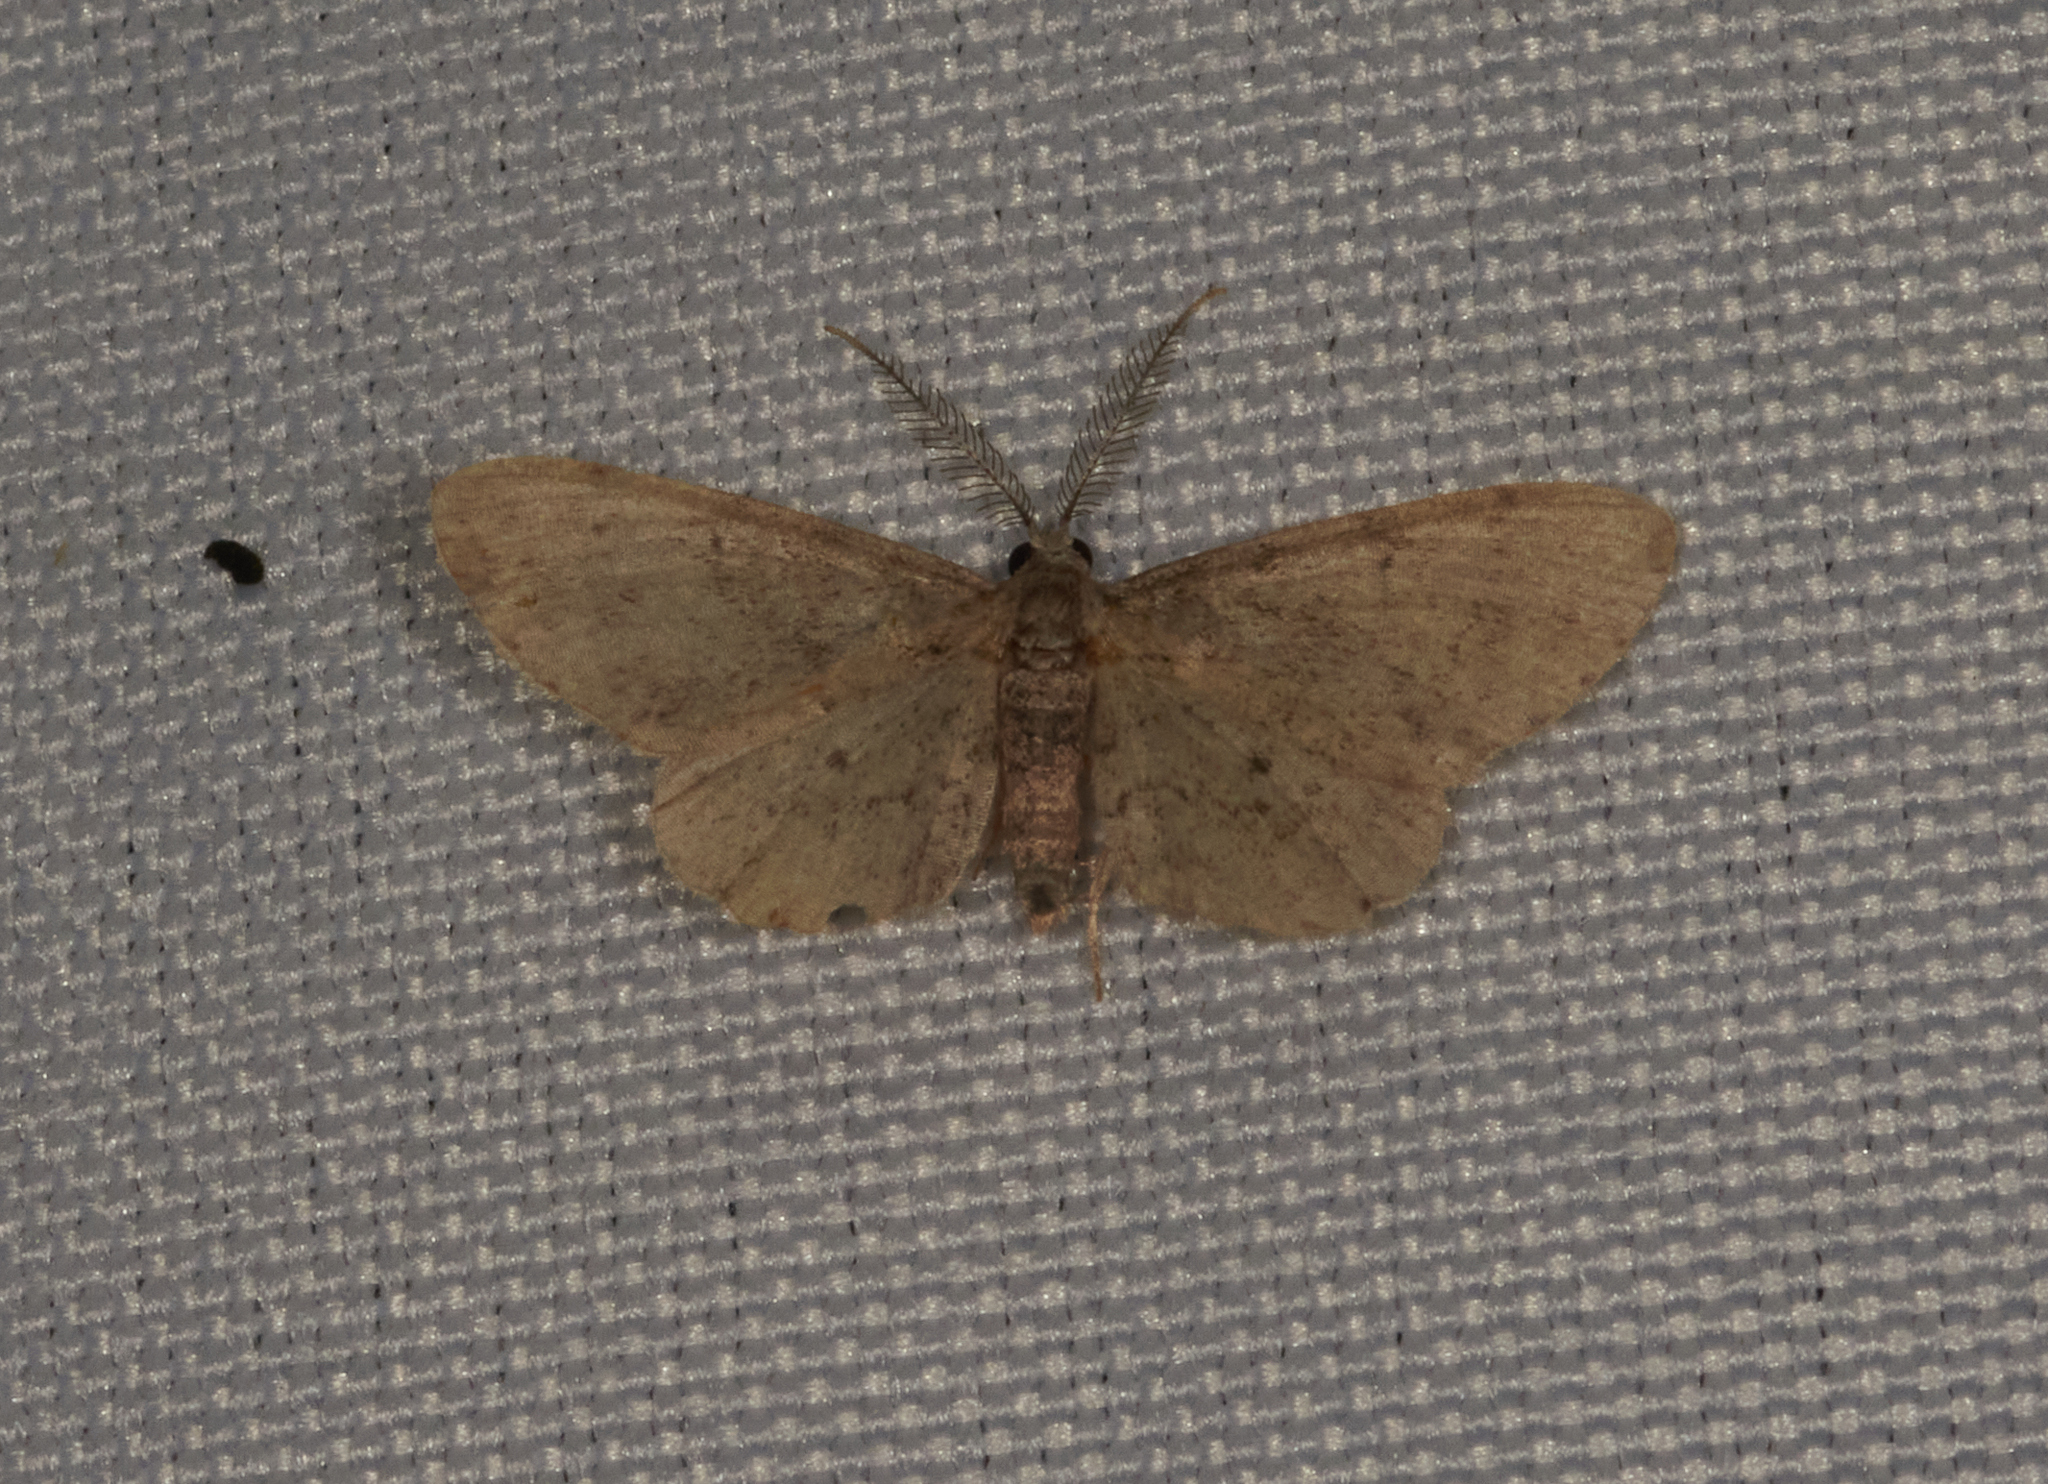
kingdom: Animalia
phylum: Arthropoda
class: Insecta
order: Lepidoptera
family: Geometridae
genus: Glenoides
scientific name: Glenoides texanaria
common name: Texas gray
